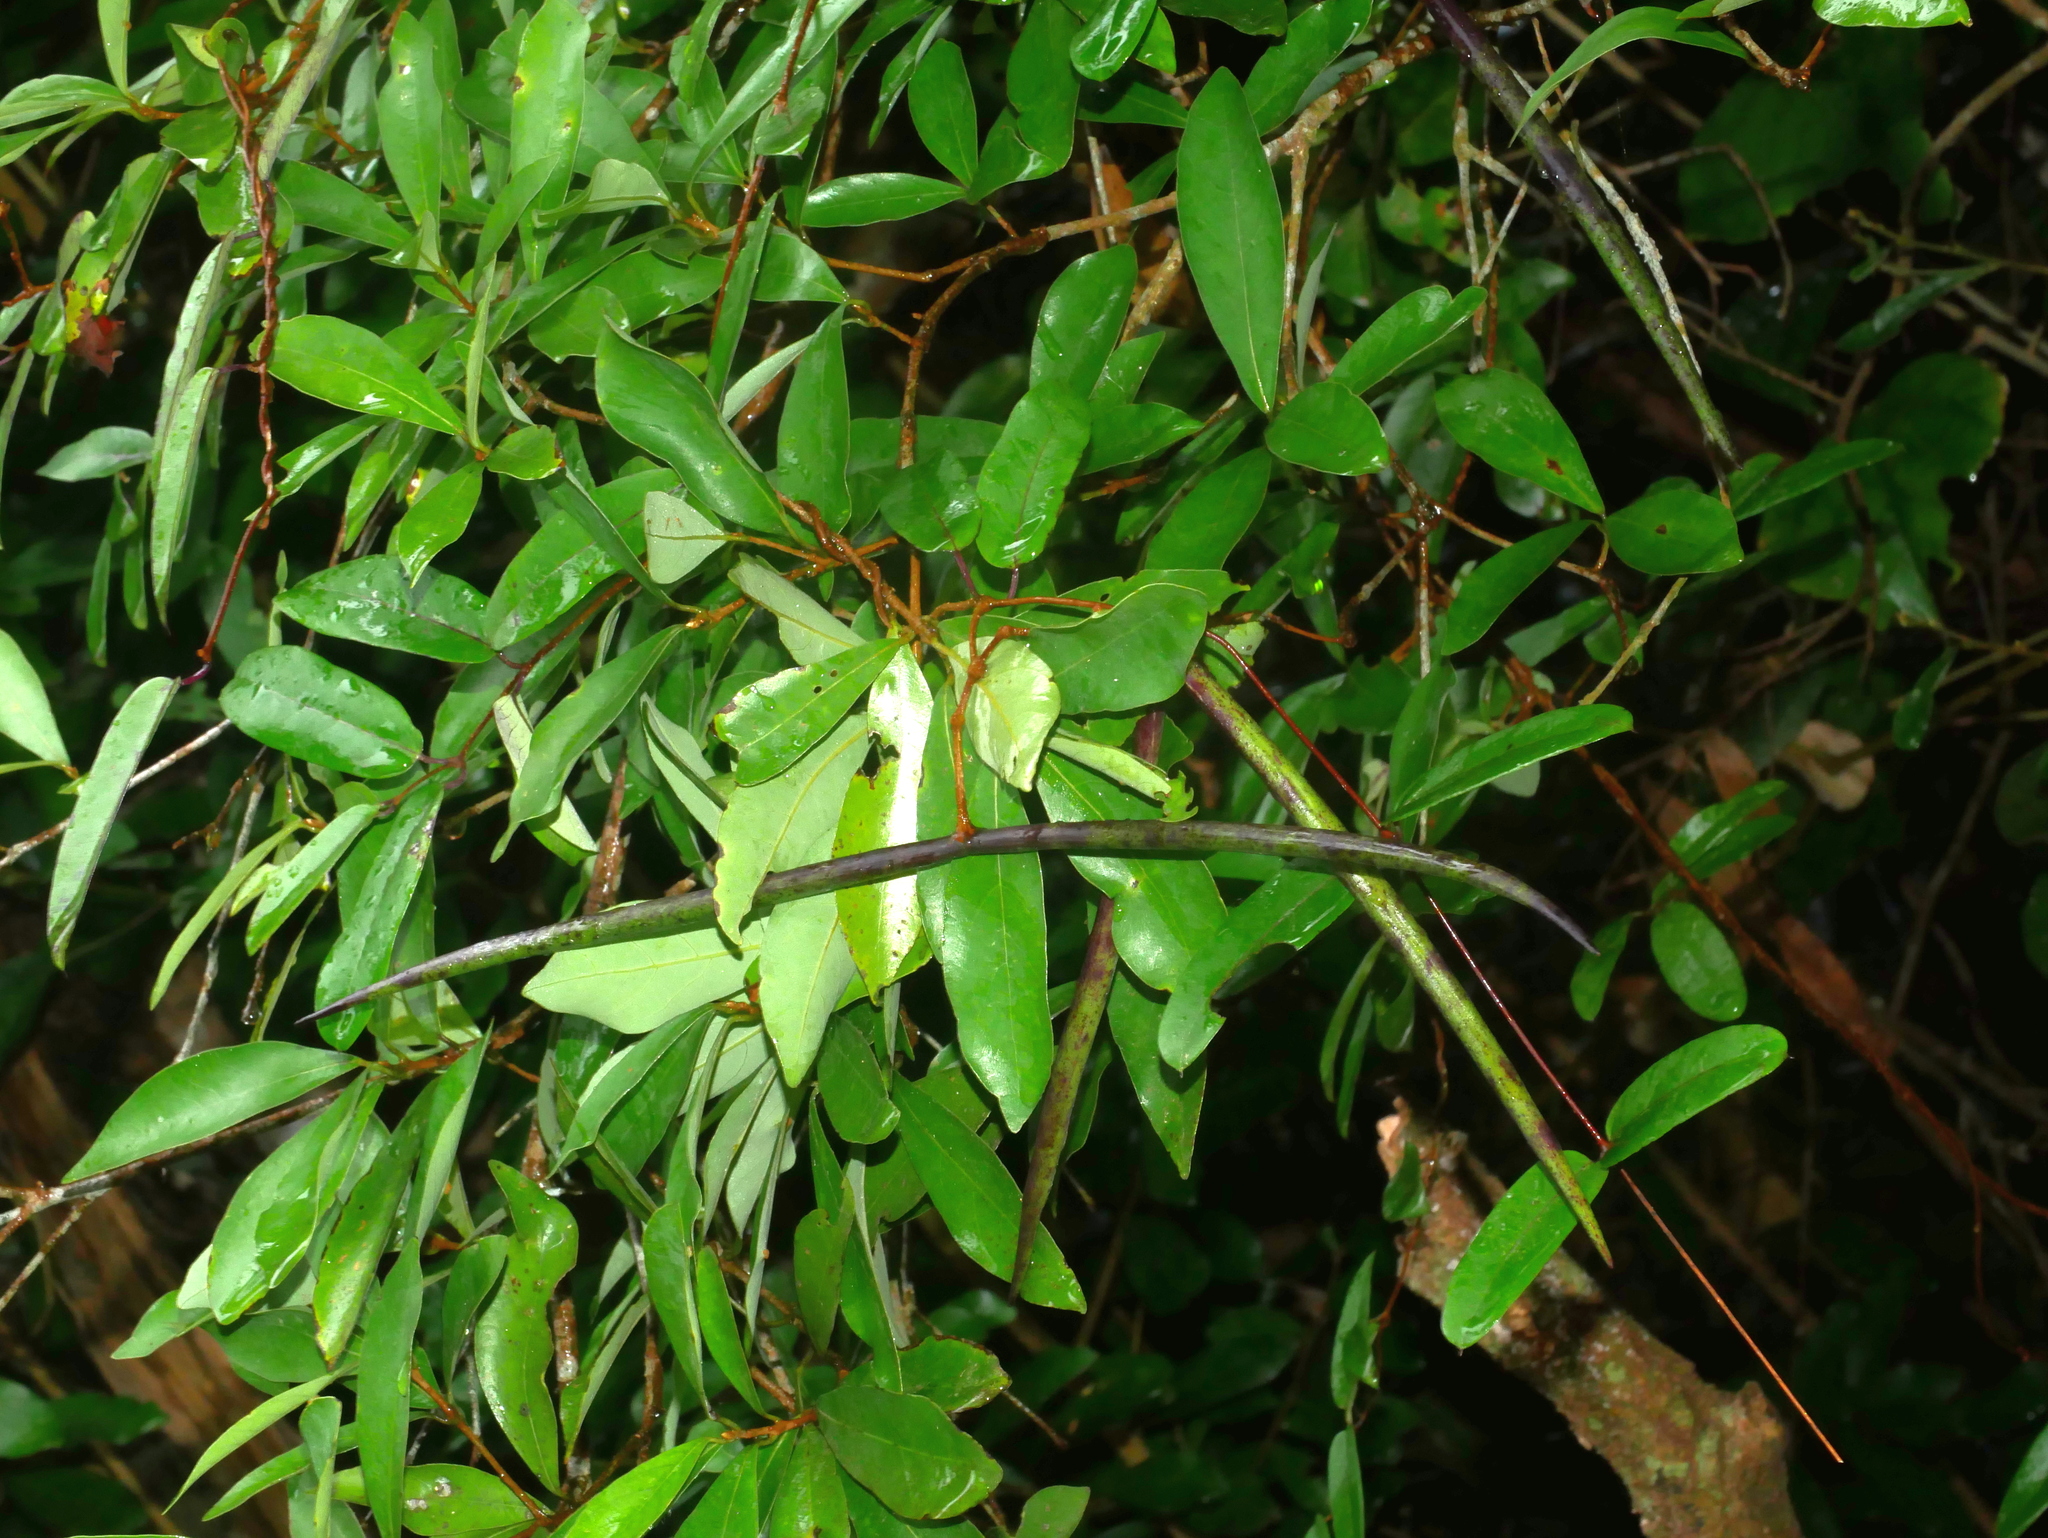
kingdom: Plantae
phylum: Tracheophyta
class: Magnoliopsida
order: Gentianales
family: Apocynaceae
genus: Cryptolepis
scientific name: Cryptolepis sinensis
